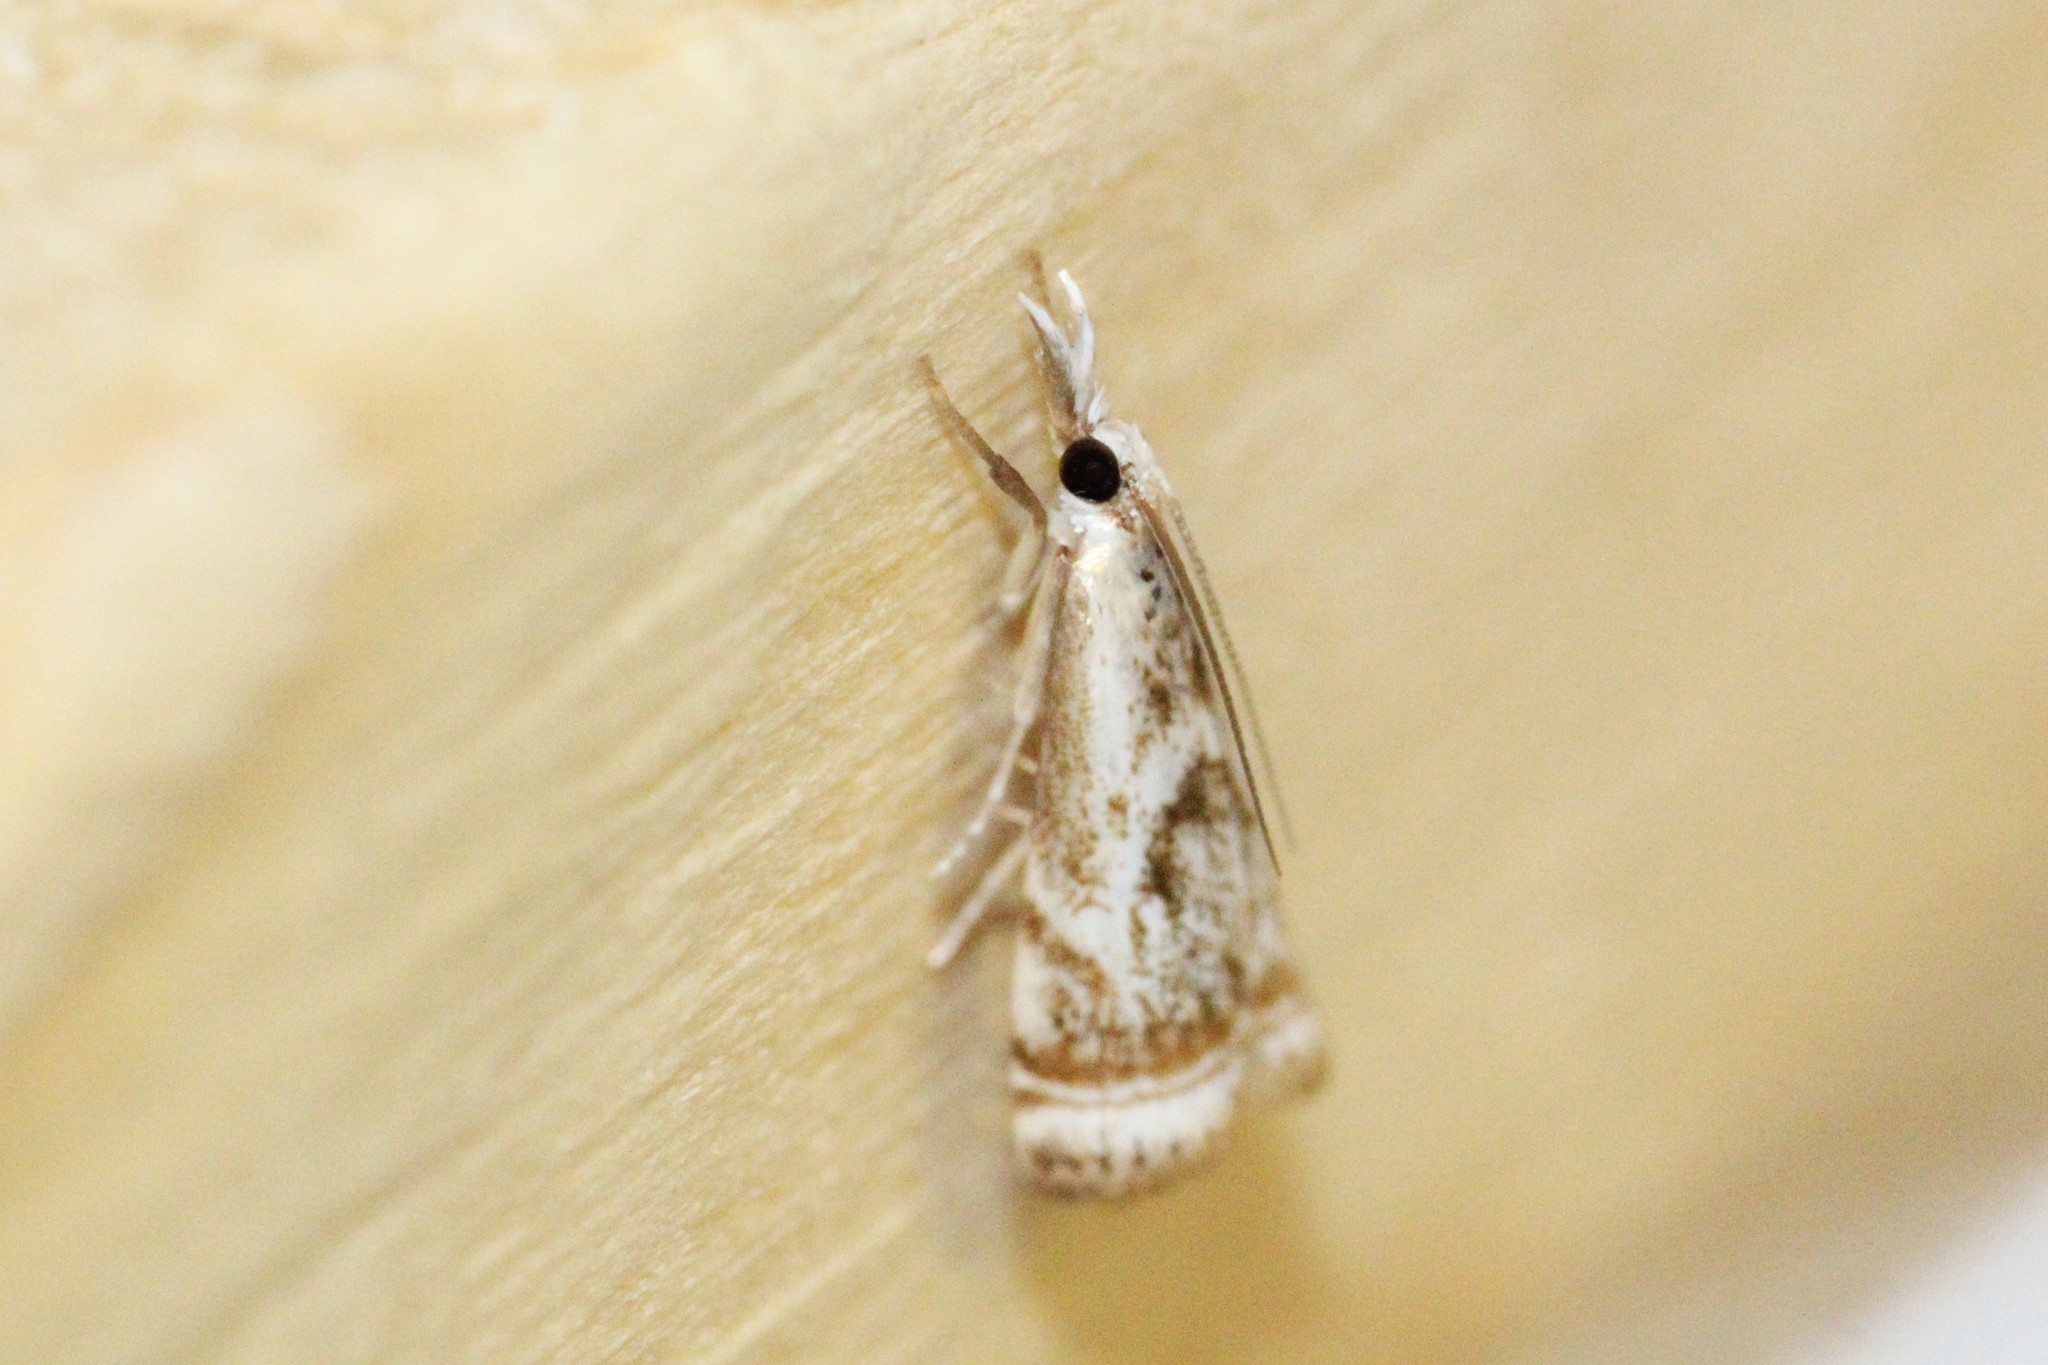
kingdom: Animalia
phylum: Arthropoda
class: Insecta
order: Lepidoptera
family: Crambidae
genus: Microcrambus
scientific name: Microcrambus elegans
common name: Elegant grass-veneer
